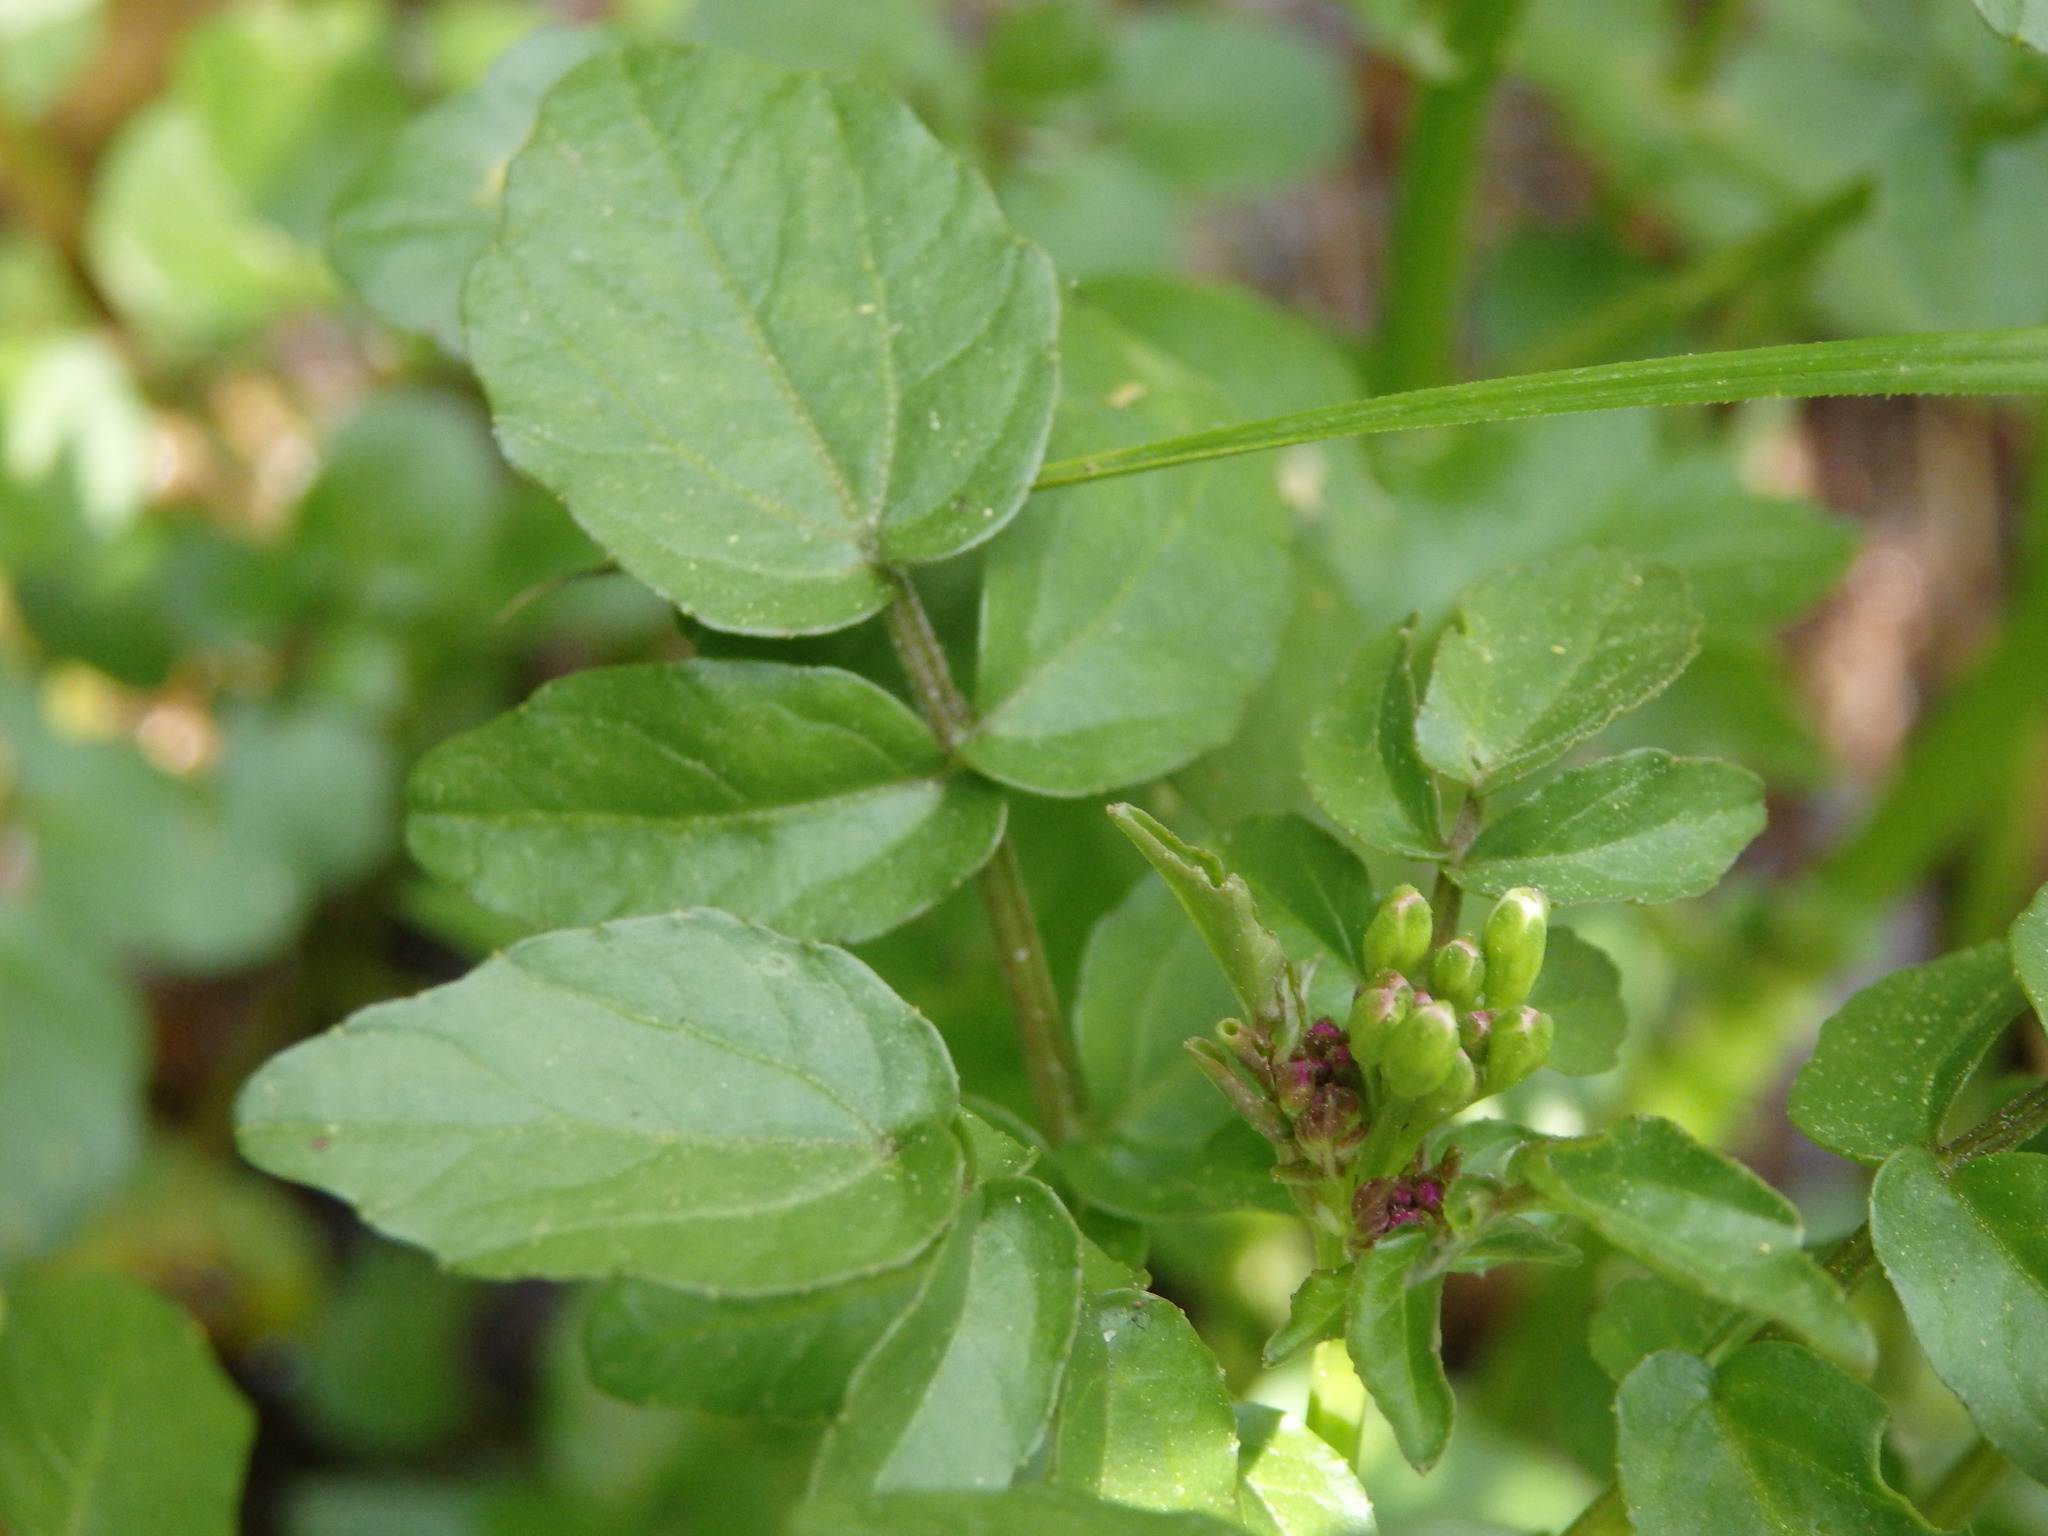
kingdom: Plantae
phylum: Tracheophyta
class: Magnoliopsida
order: Brassicales
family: Brassicaceae
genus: Nasturtium
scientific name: Nasturtium officinale
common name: Watercress
